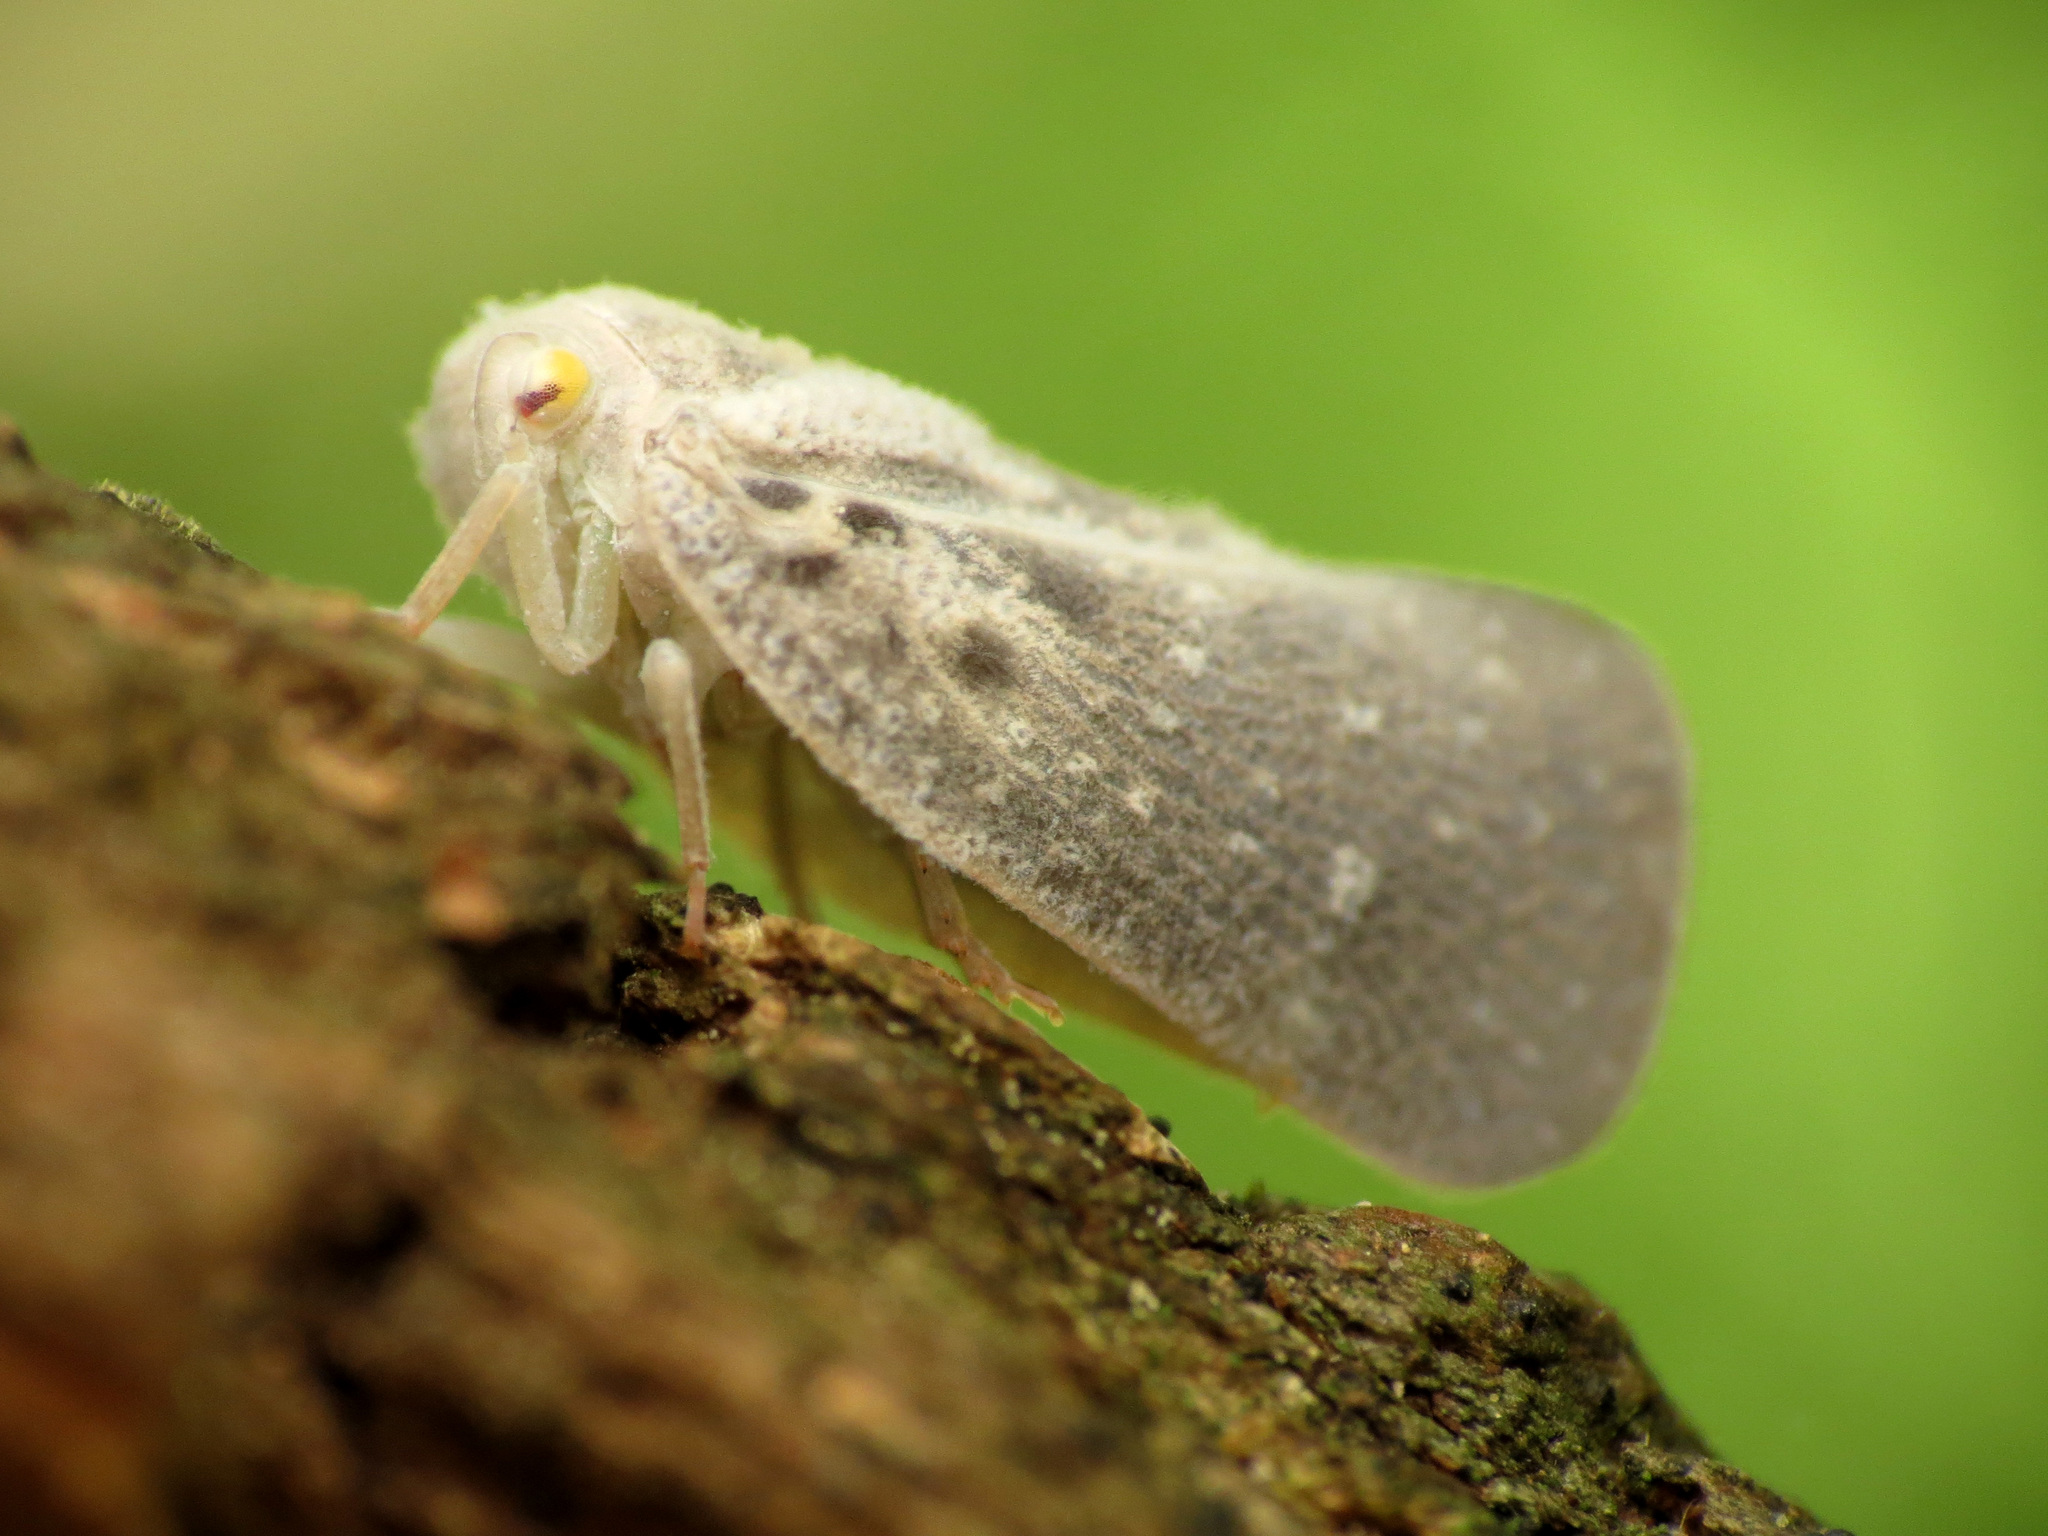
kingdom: Animalia
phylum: Arthropoda
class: Insecta
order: Hemiptera
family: Flatidae
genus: Metcalfa
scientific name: Metcalfa pruinosa
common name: Citrus flatid planthopper
